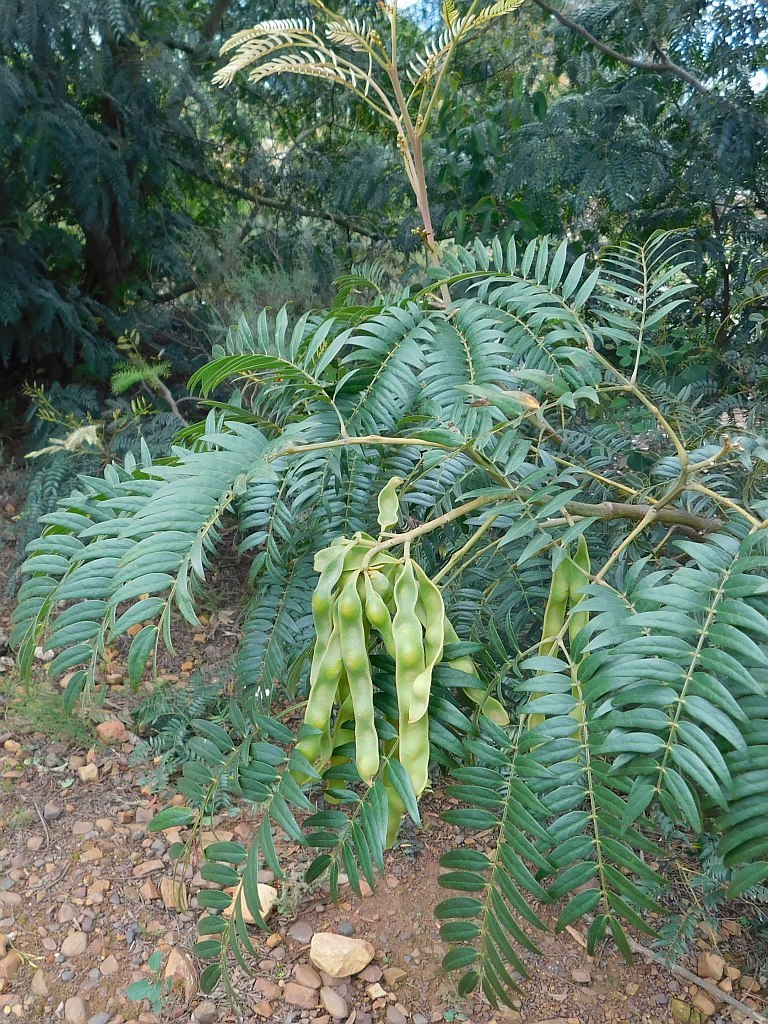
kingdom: Plantae
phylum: Tracheophyta
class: Magnoliopsida
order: Fabales
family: Fabaceae
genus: Acacia
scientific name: Acacia elata
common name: Cedar wattle
